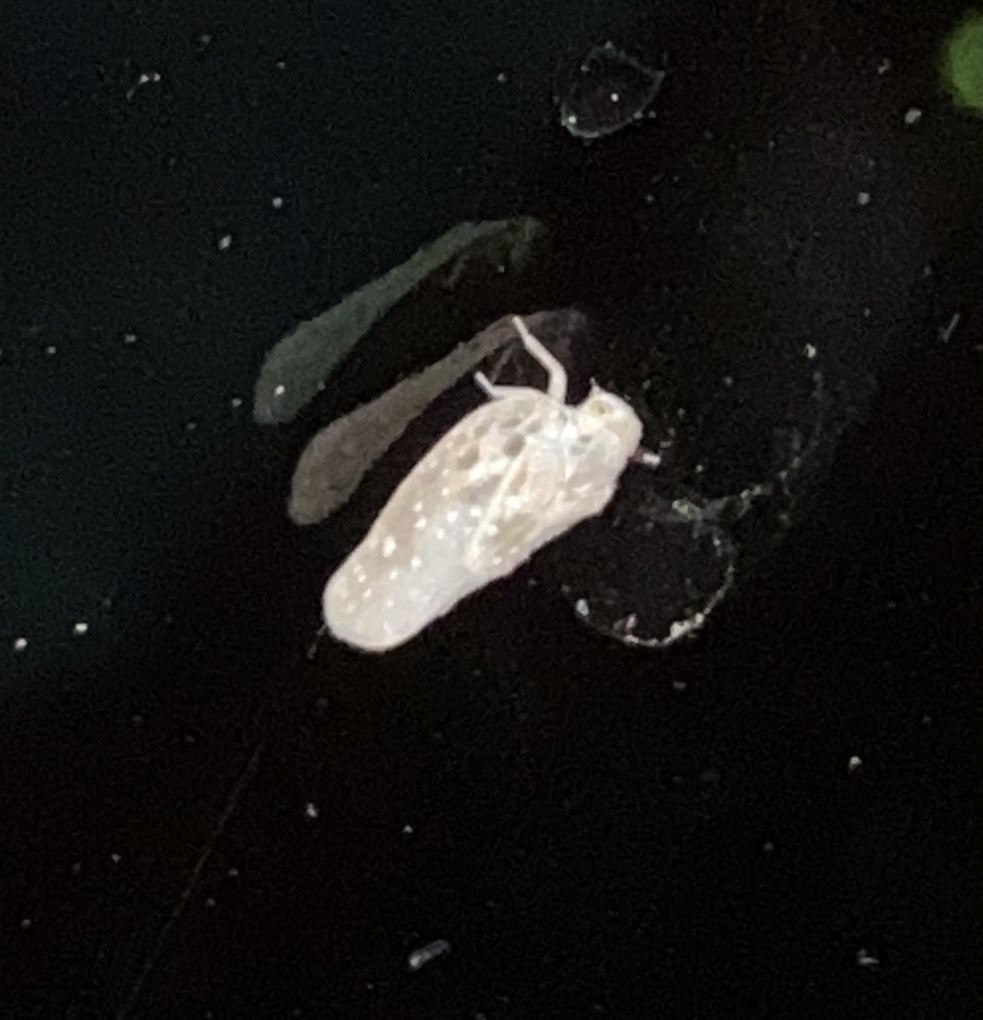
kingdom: Animalia
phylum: Arthropoda
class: Insecta
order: Hemiptera
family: Flatidae
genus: Metcalfa
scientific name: Metcalfa pruinosa
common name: Citrus flatid planthopper
